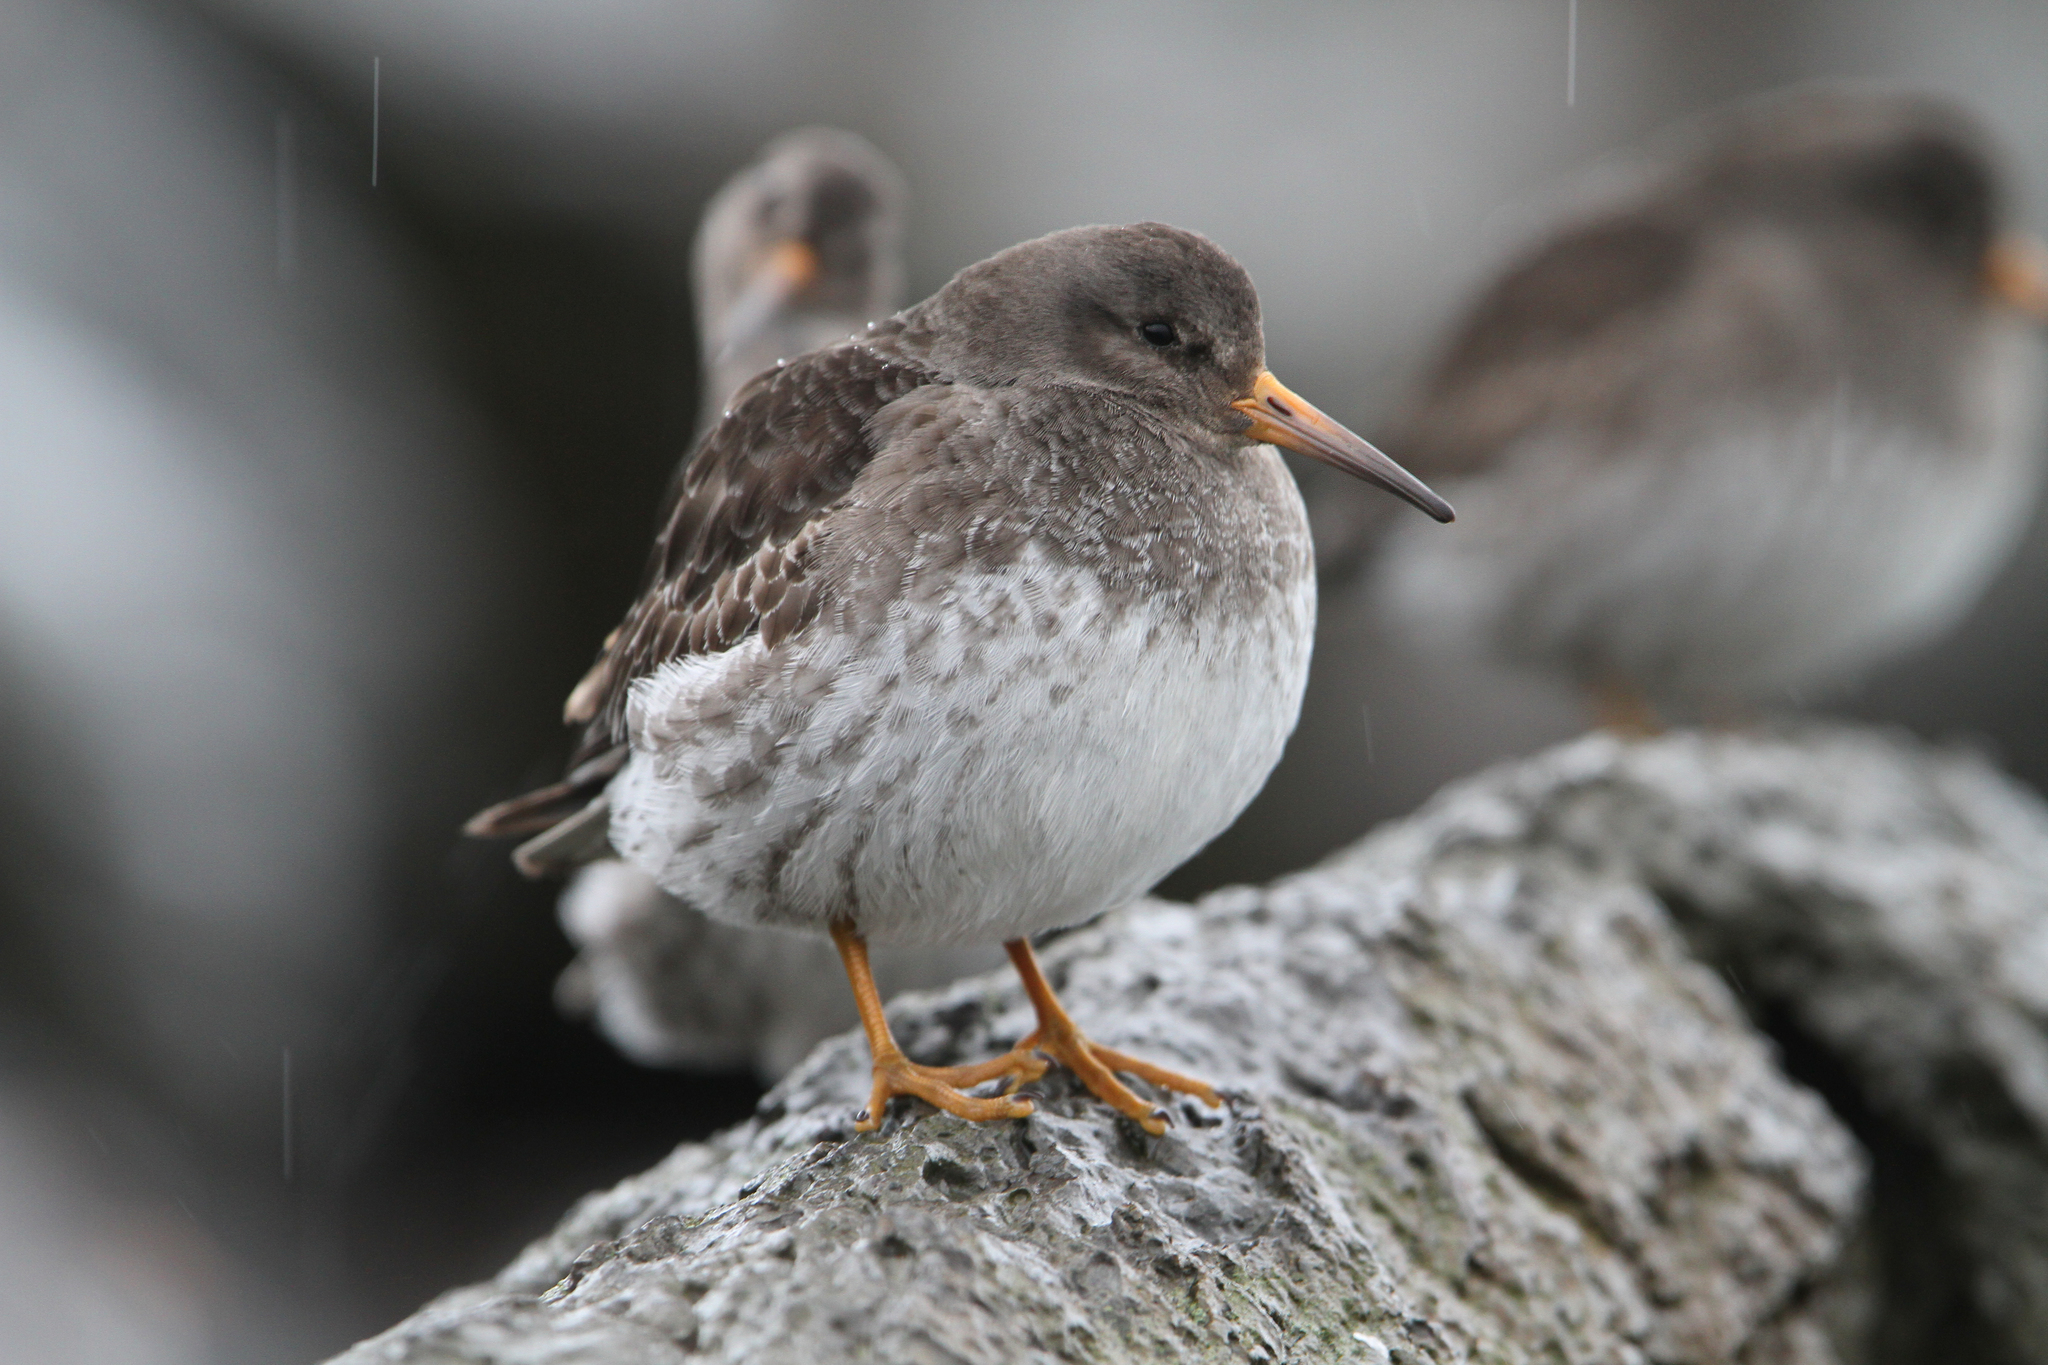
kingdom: Animalia
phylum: Chordata
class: Aves
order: Charadriiformes
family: Scolopacidae
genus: Calidris
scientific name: Calidris maritima
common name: Purple sandpiper
